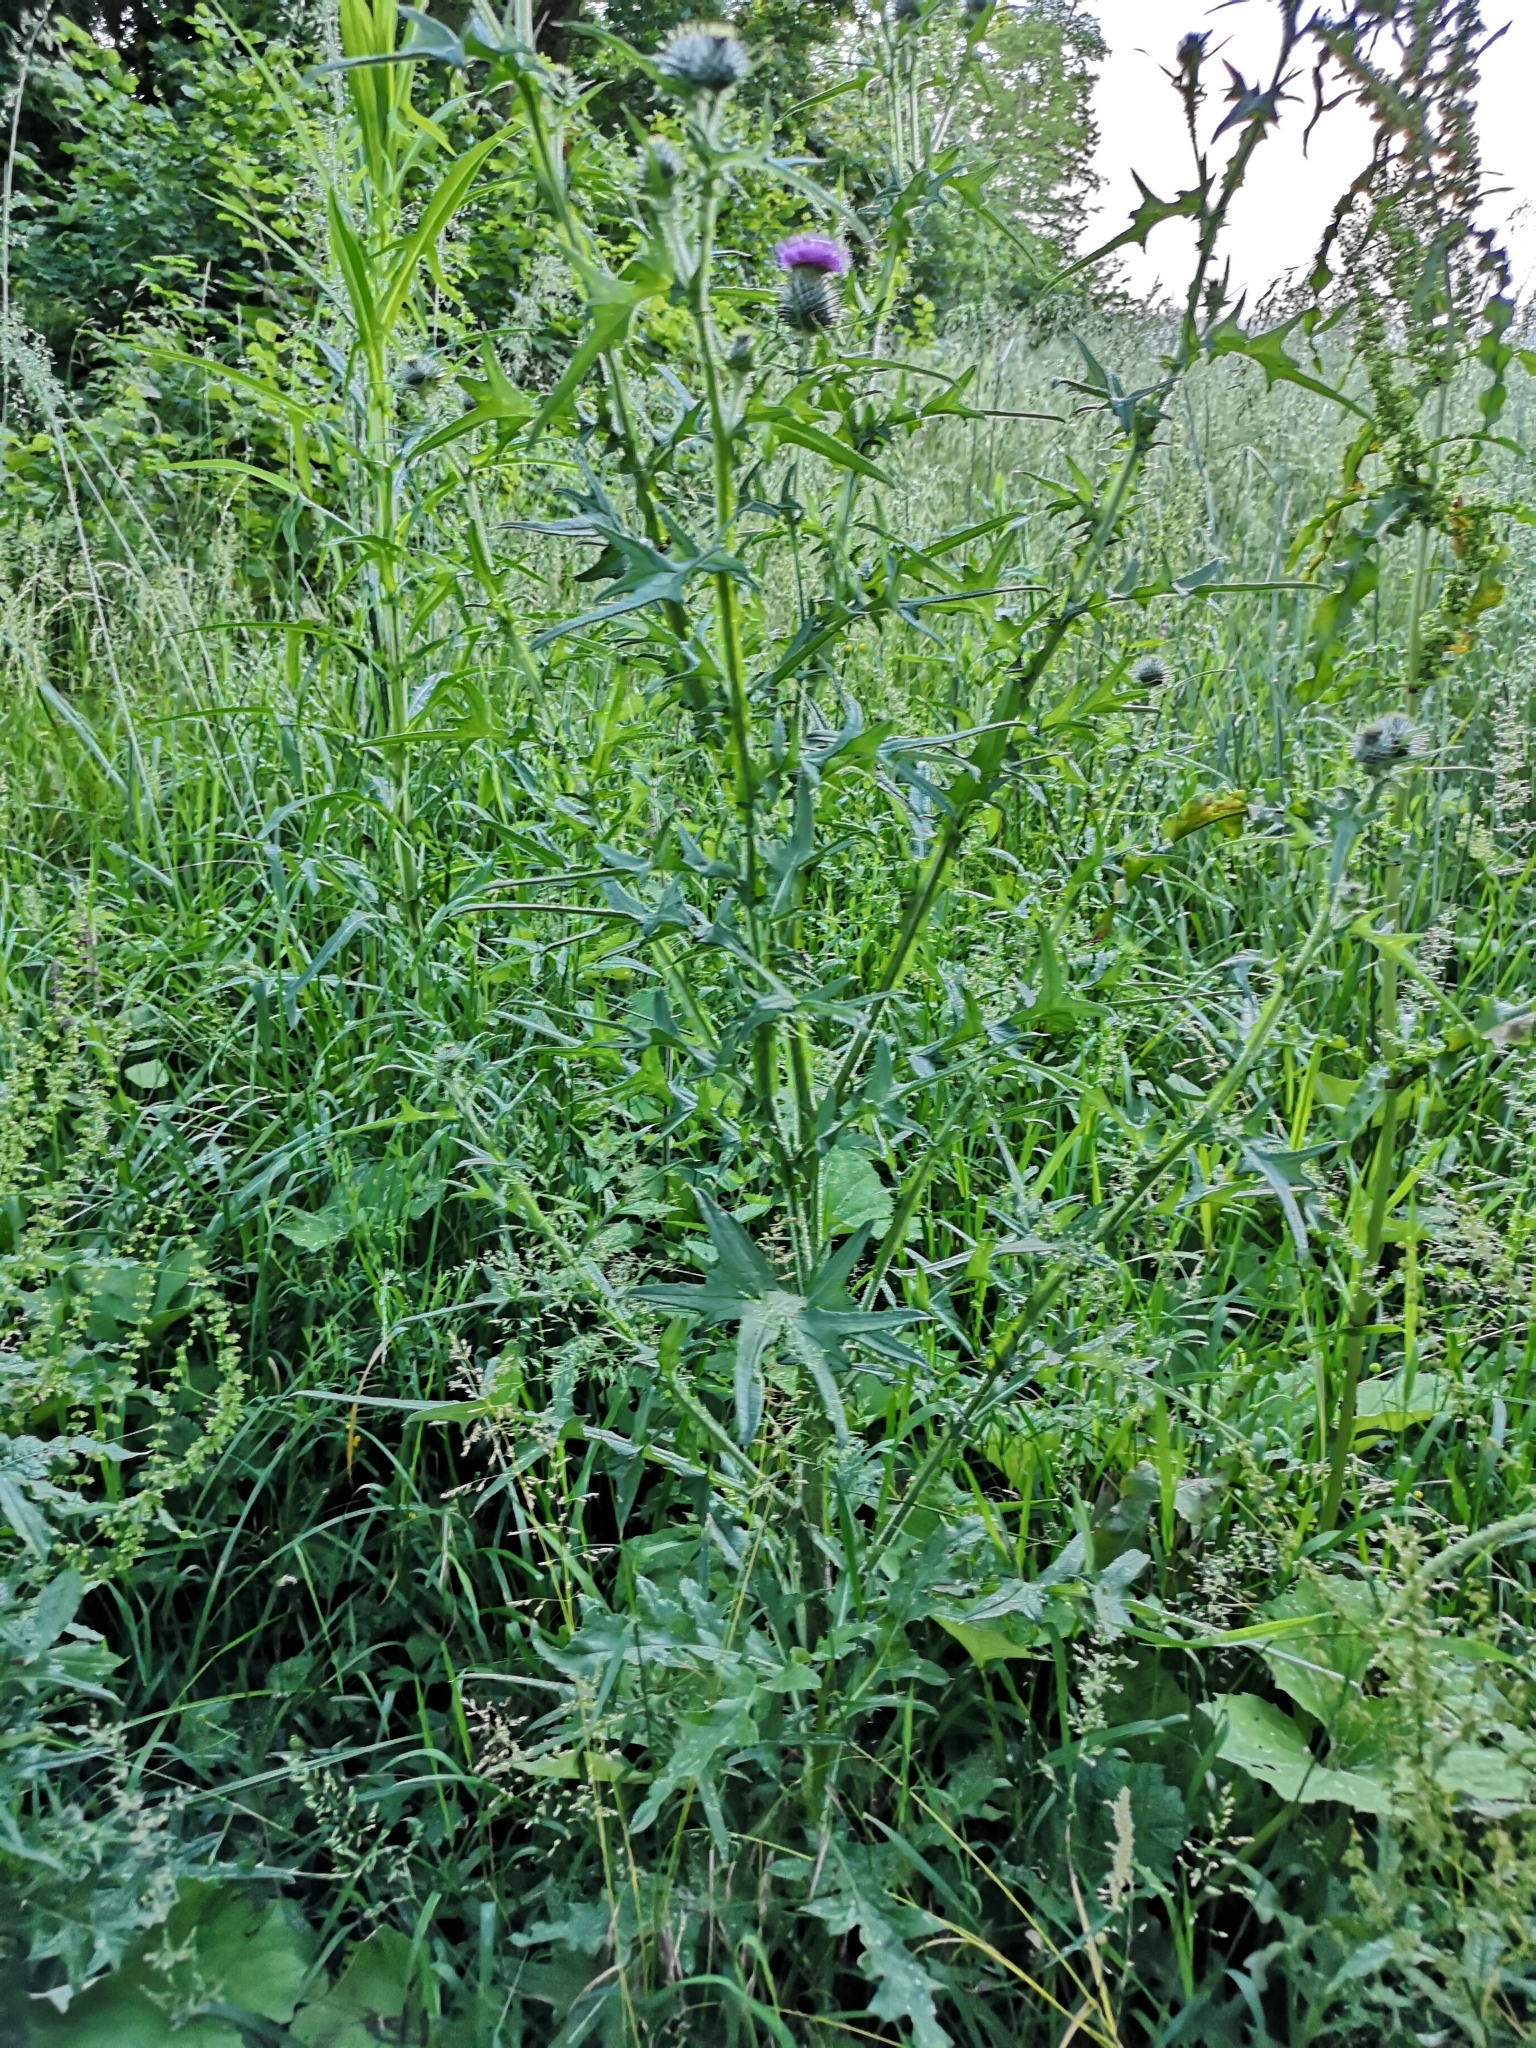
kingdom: Plantae
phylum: Tracheophyta
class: Magnoliopsida
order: Asterales
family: Asteraceae
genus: Cirsium
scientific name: Cirsium vulgare
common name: Bull thistle
